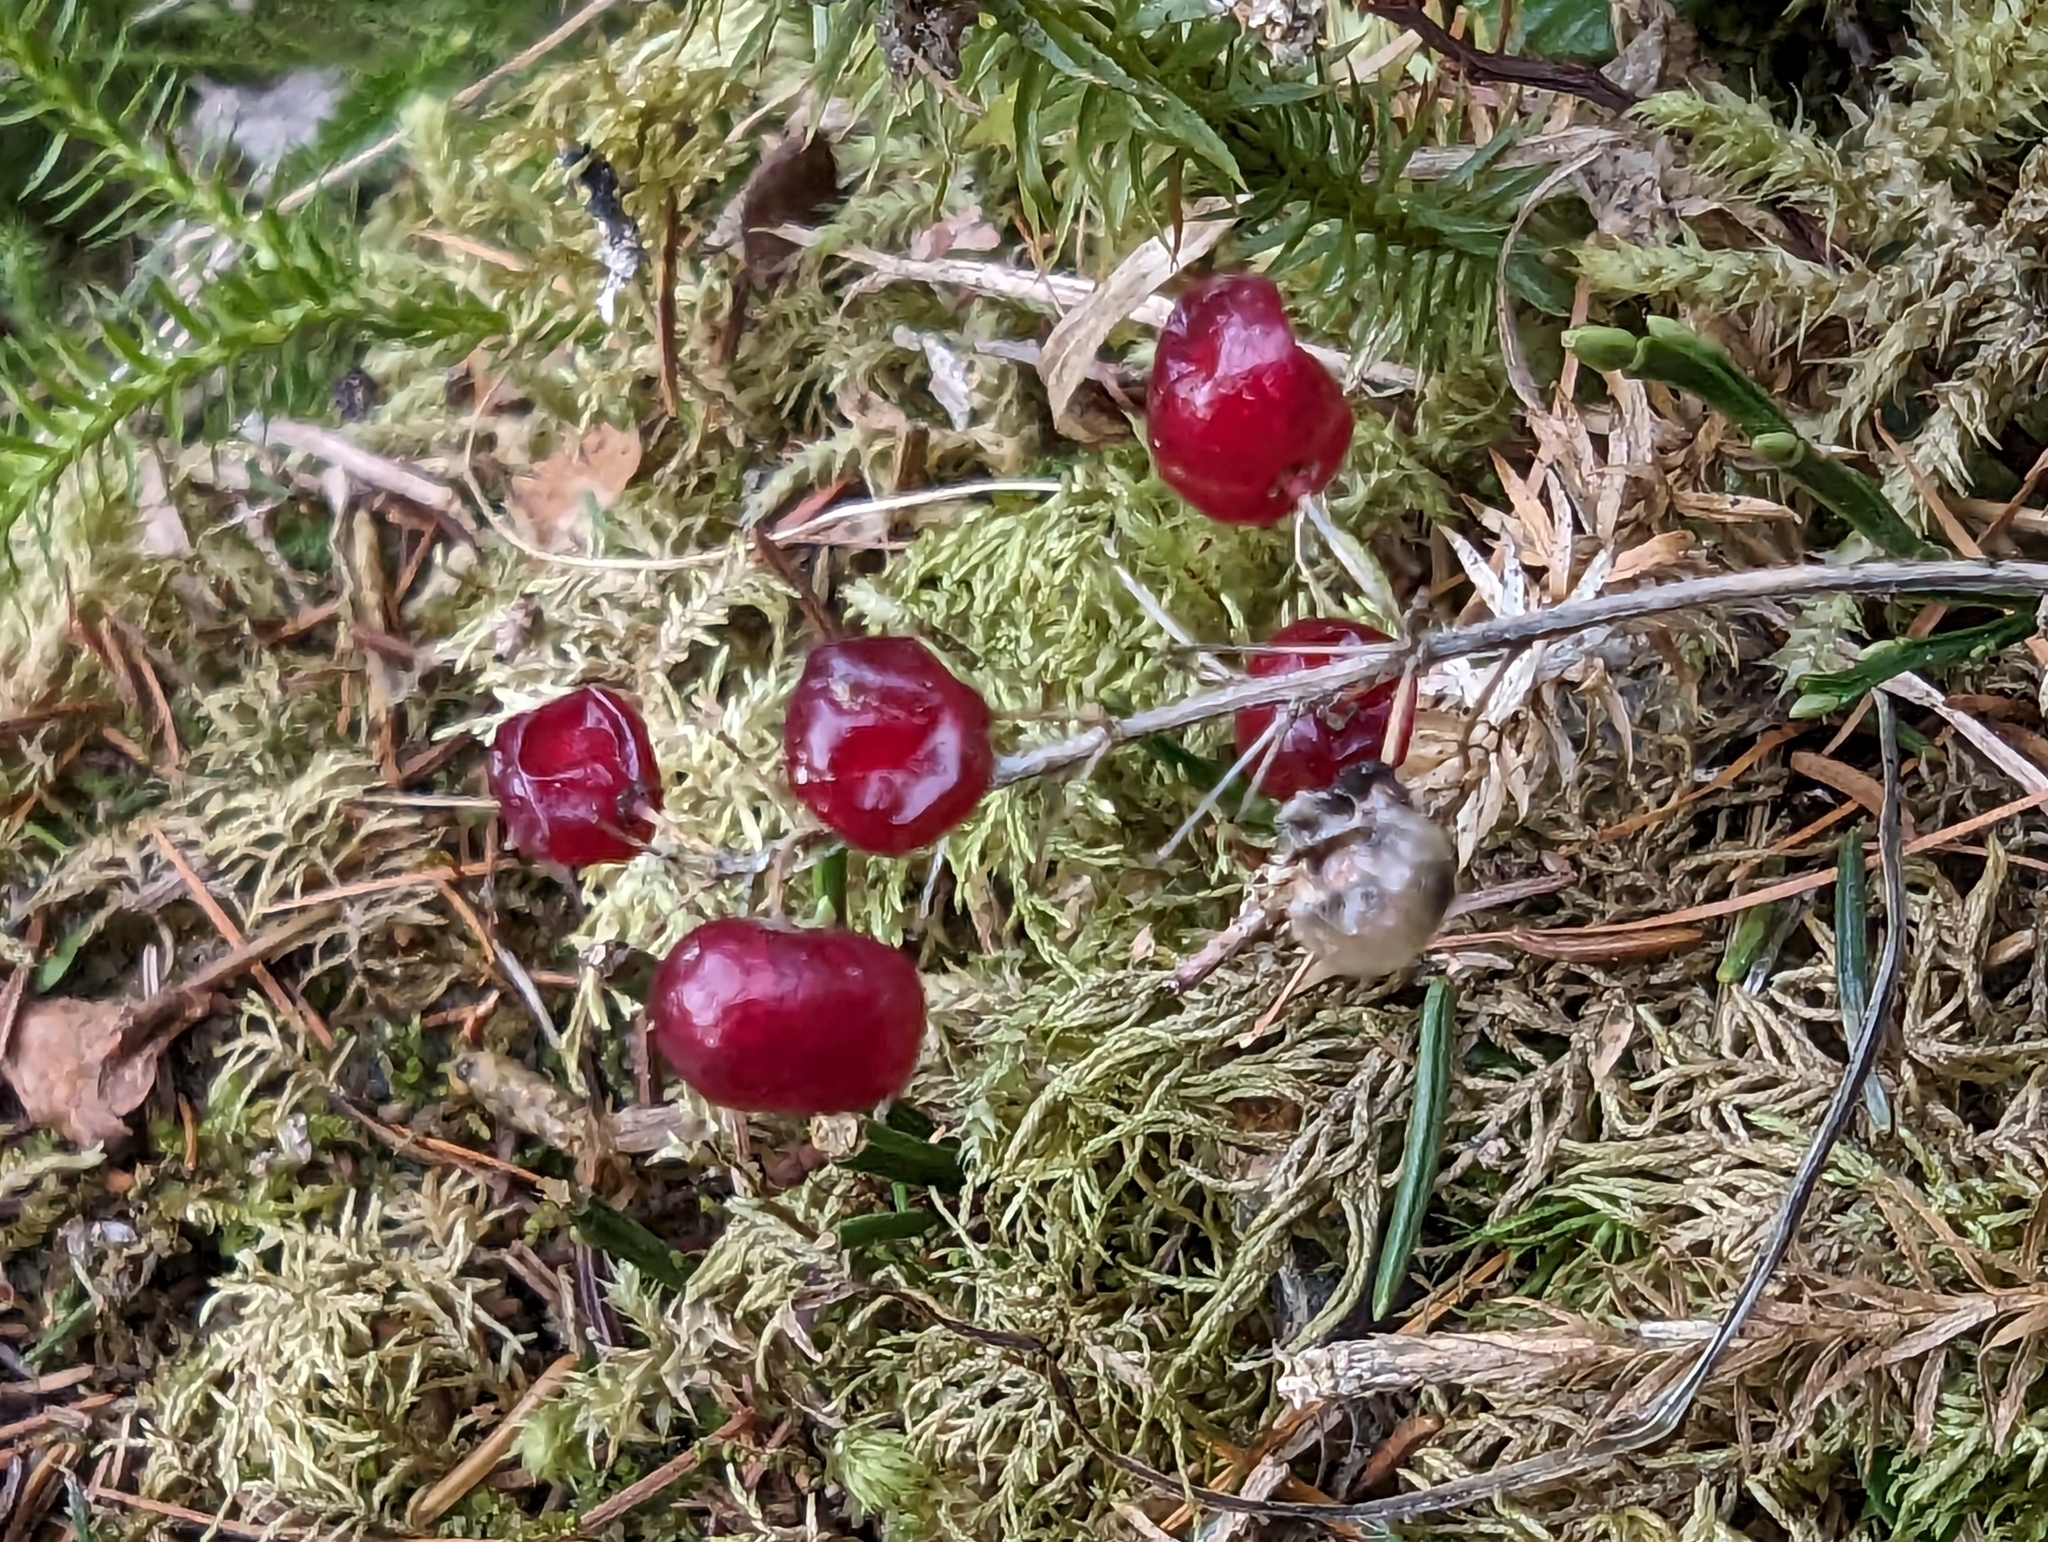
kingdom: Plantae
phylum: Tracheophyta
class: Liliopsida
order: Asparagales
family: Asparagaceae
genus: Maianthemum
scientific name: Maianthemum bifolium
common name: May lily
